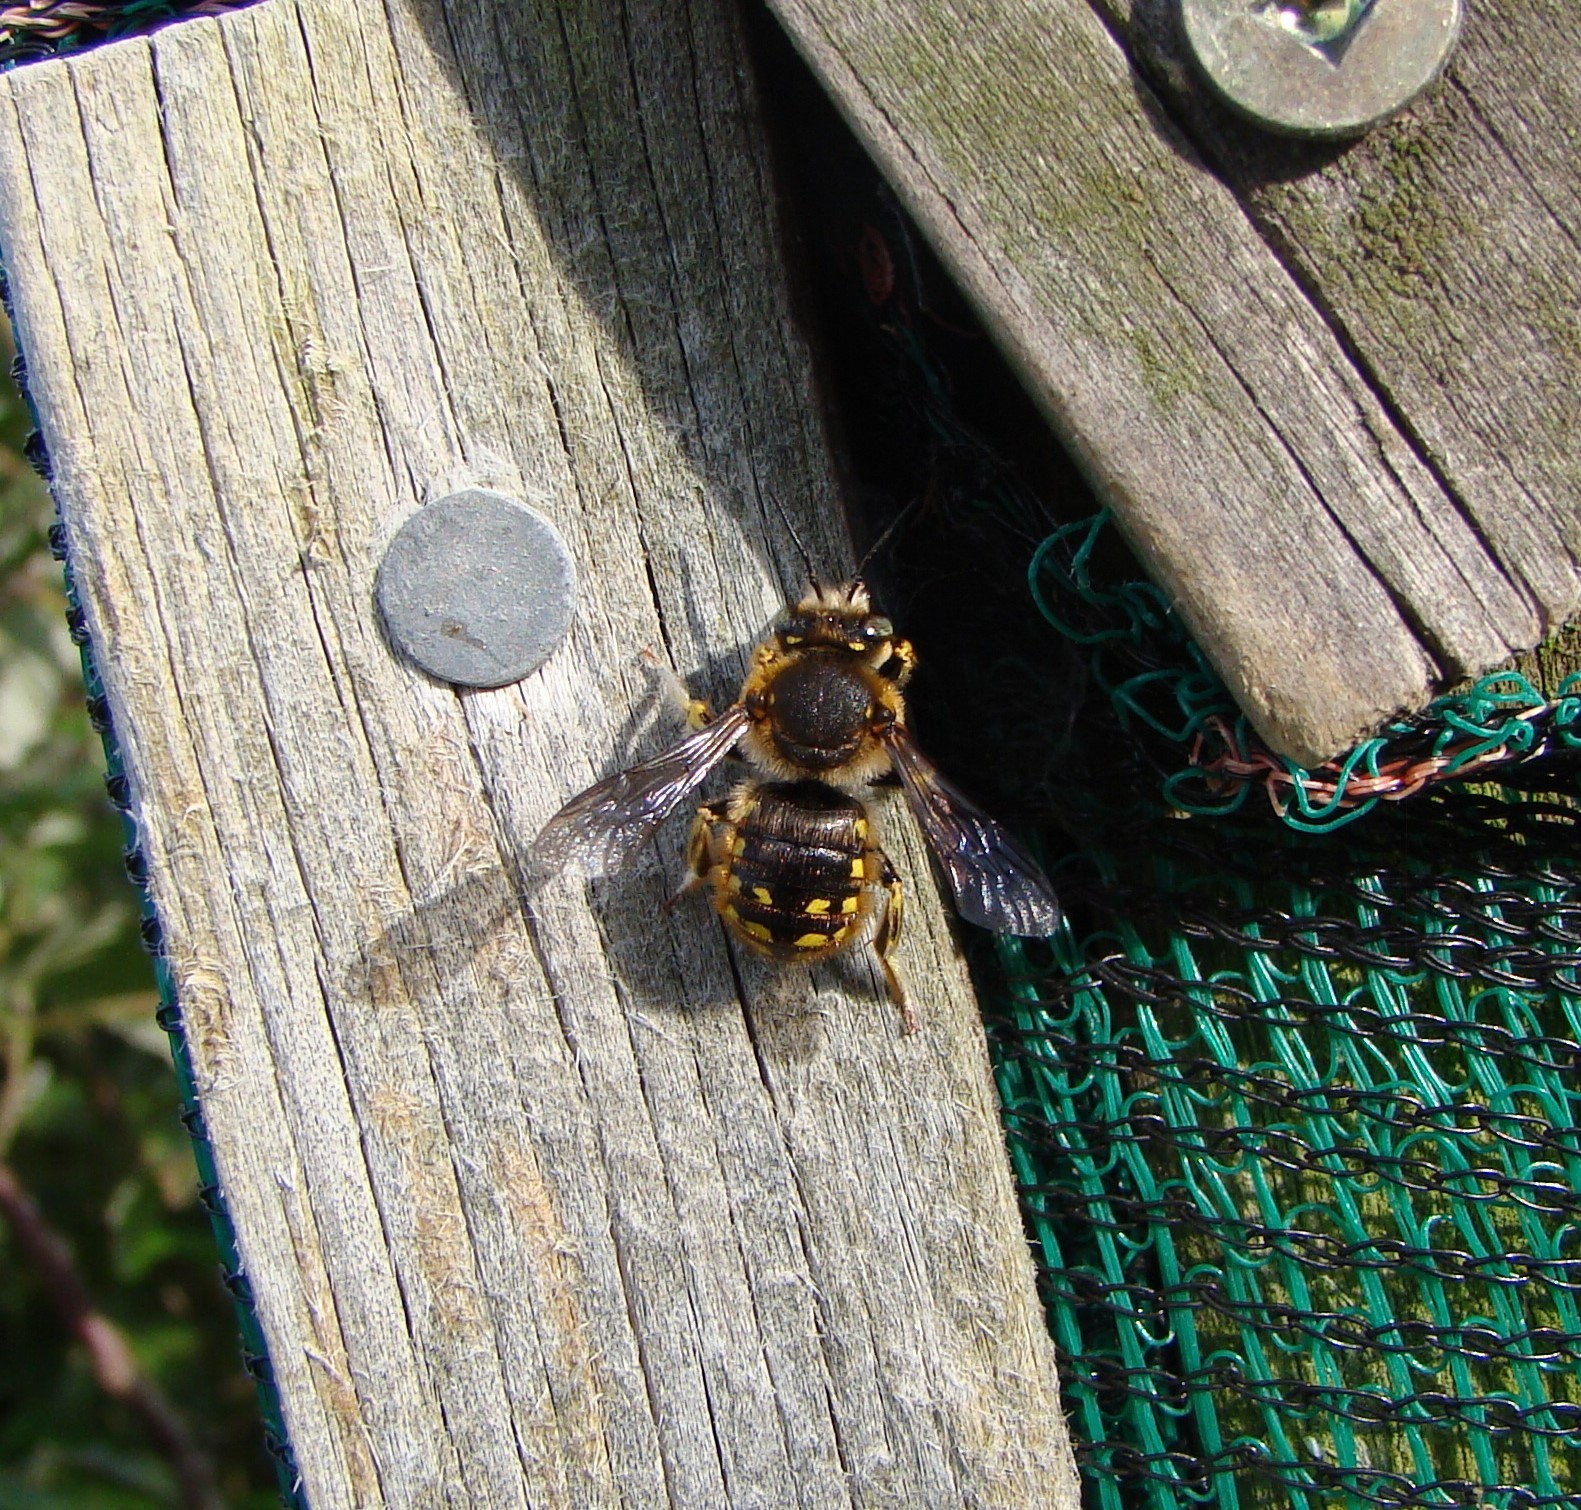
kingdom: Animalia
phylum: Arthropoda
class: Insecta
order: Hymenoptera
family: Megachilidae
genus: Anthidium
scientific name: Anthidium manicatum
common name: Wool carder bee
